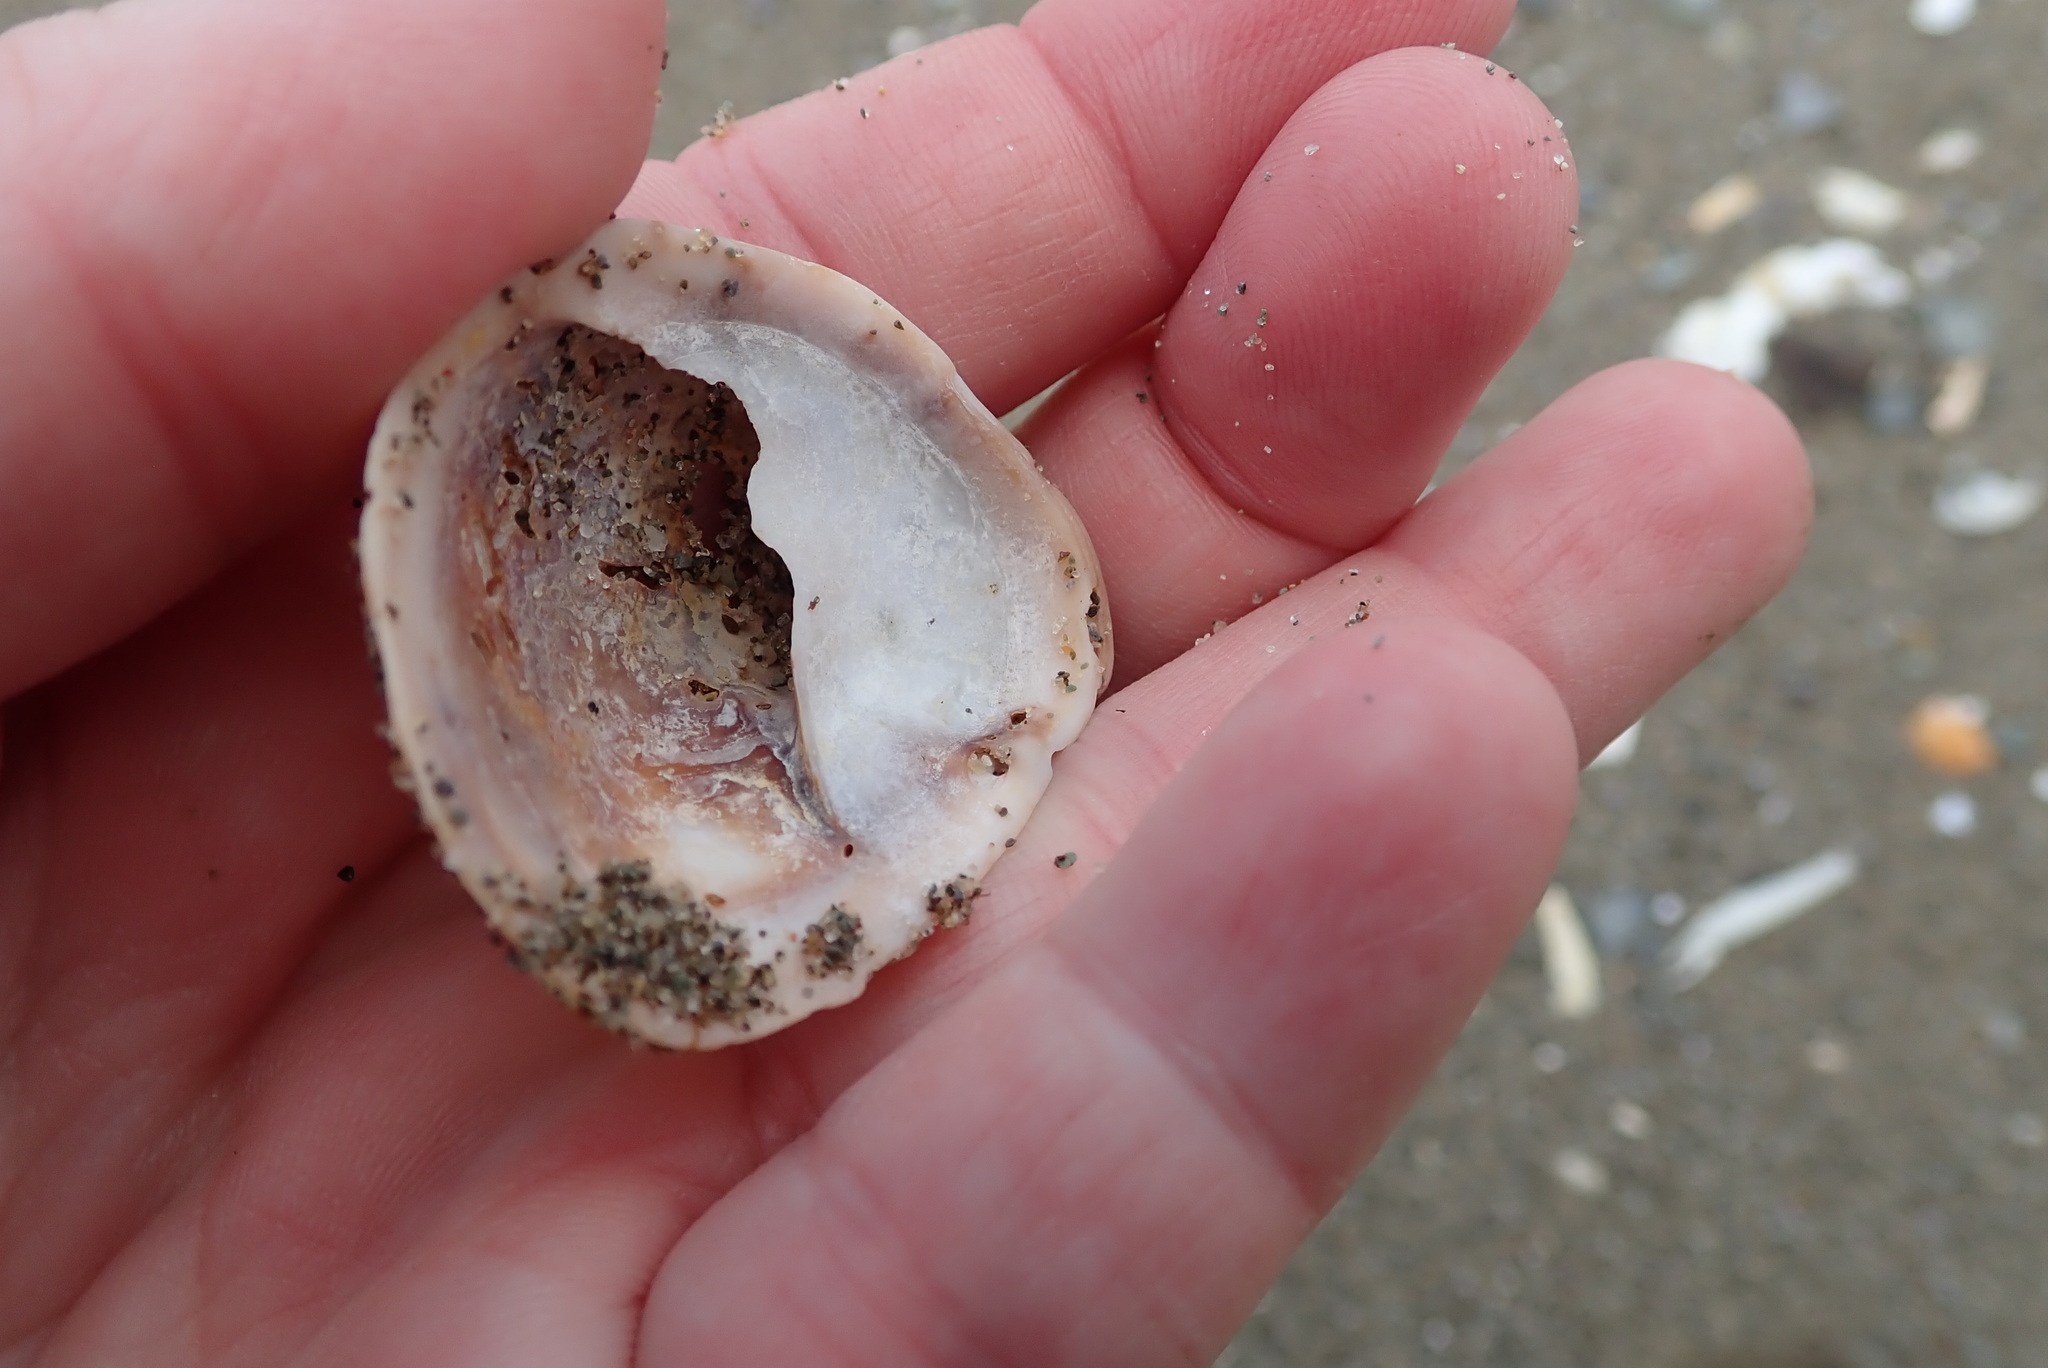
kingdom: Animalia
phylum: Mollusca
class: Gastropoda
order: Littorinimorpha
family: Calyptraeidae
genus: Crepidula
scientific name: Crepidula fornicata
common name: Slipper limpet
